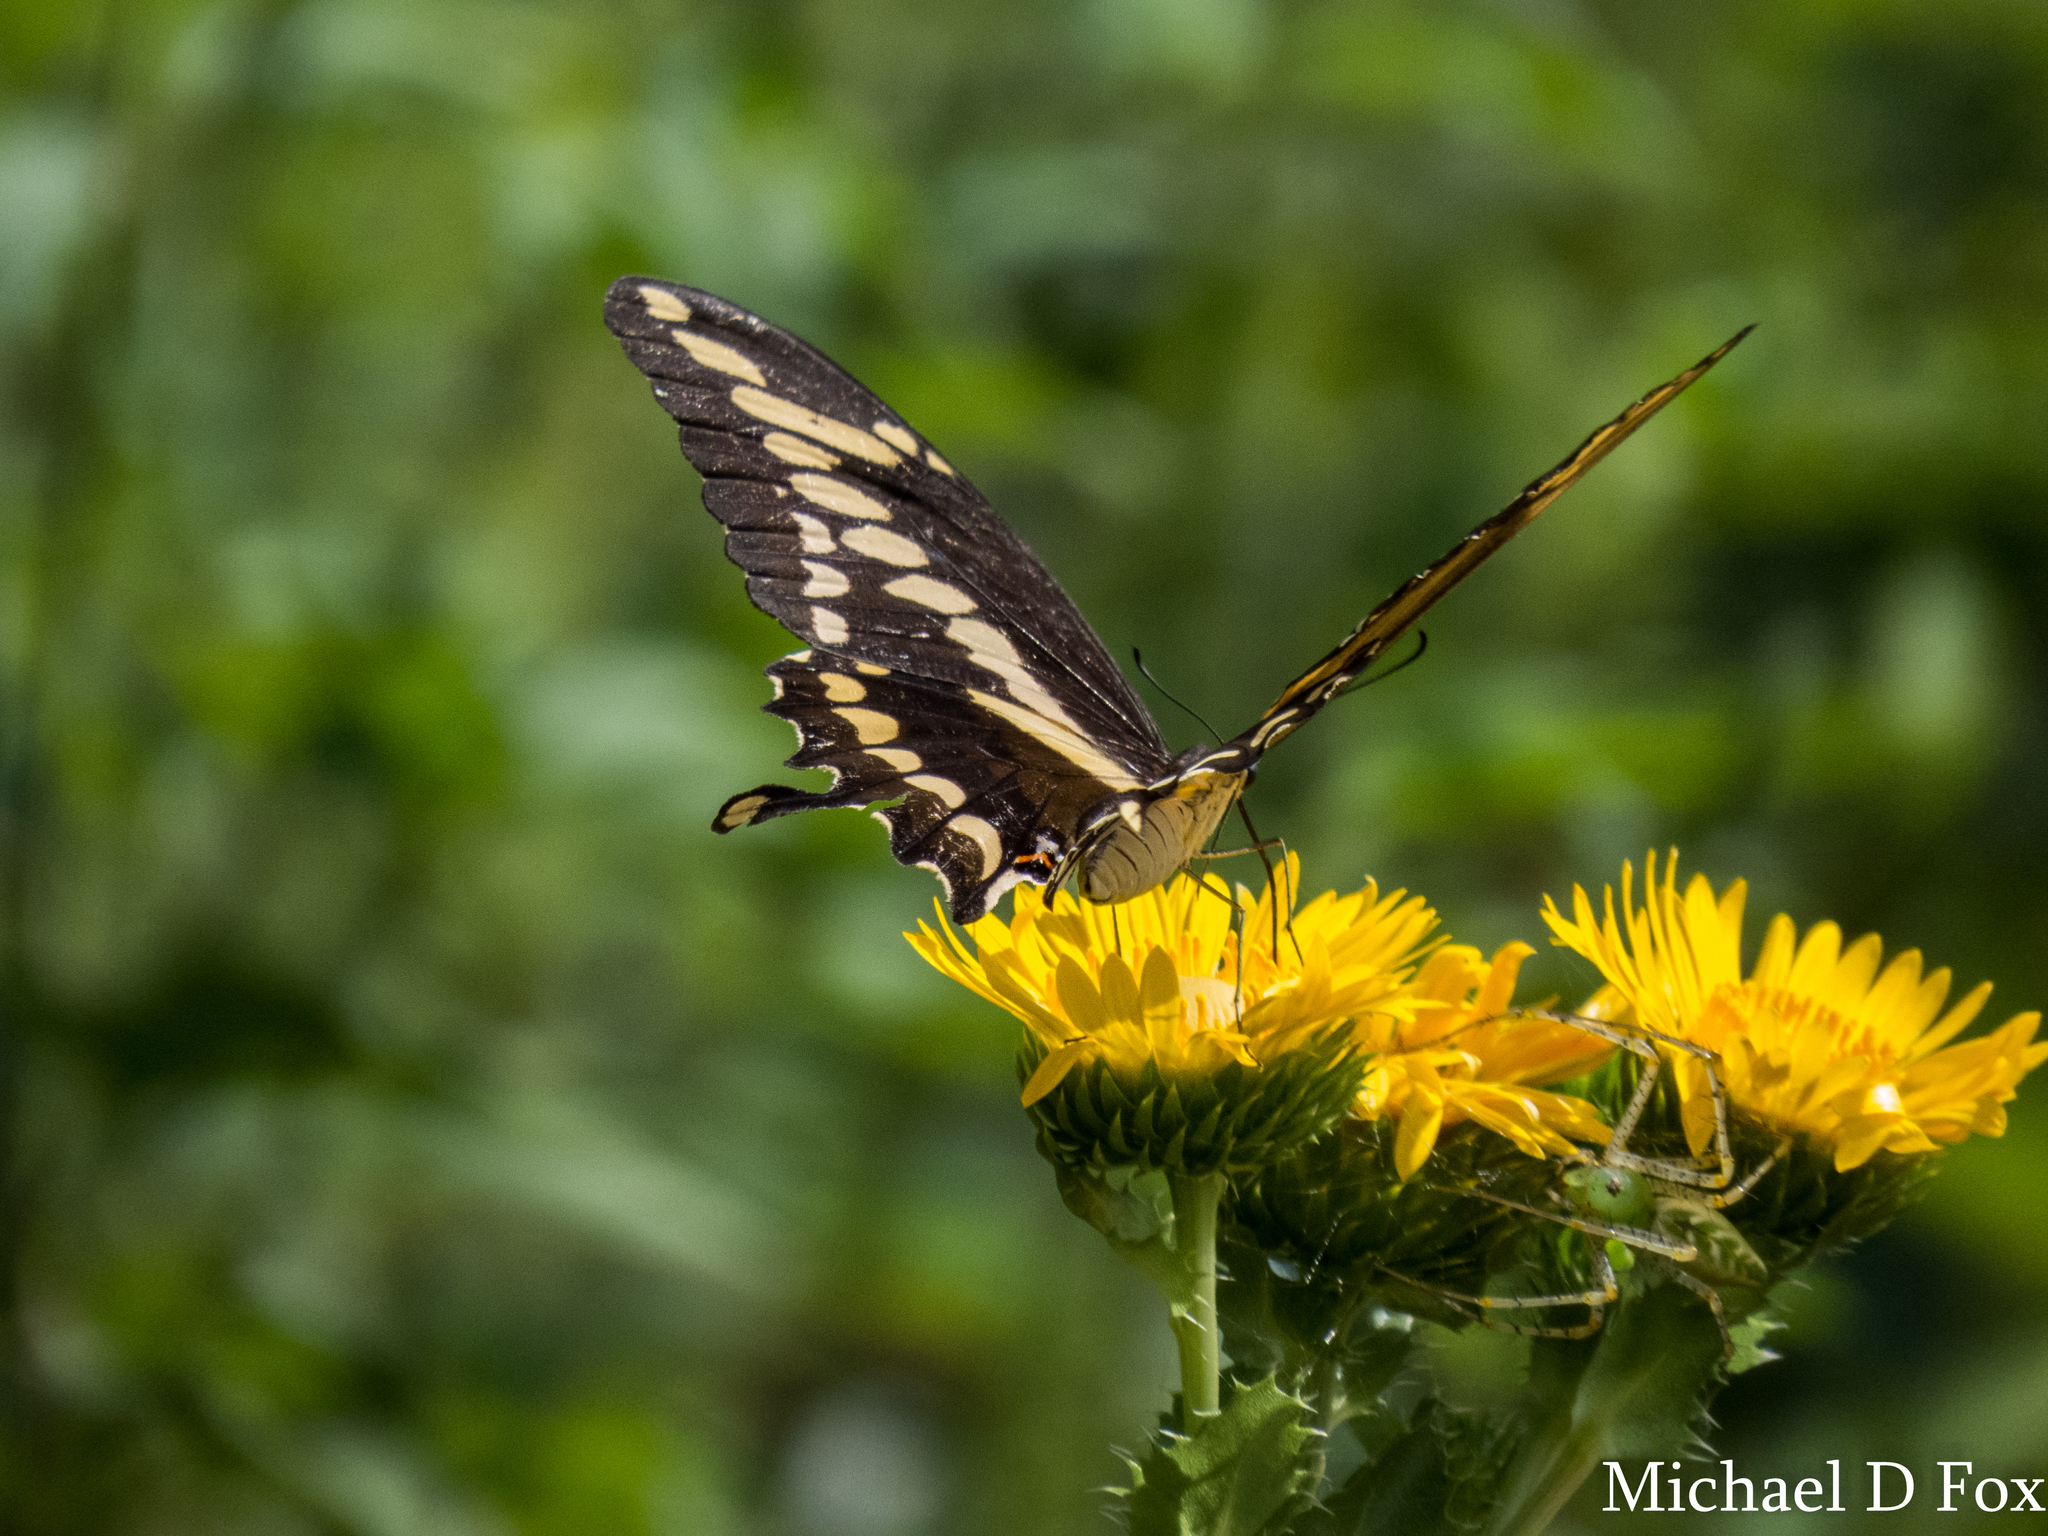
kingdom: Animalia
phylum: Arthropoda
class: Arachnida
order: Araneae
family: Oxyopidae
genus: Peucetia
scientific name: Peucetia viridans
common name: Lynx spiders
